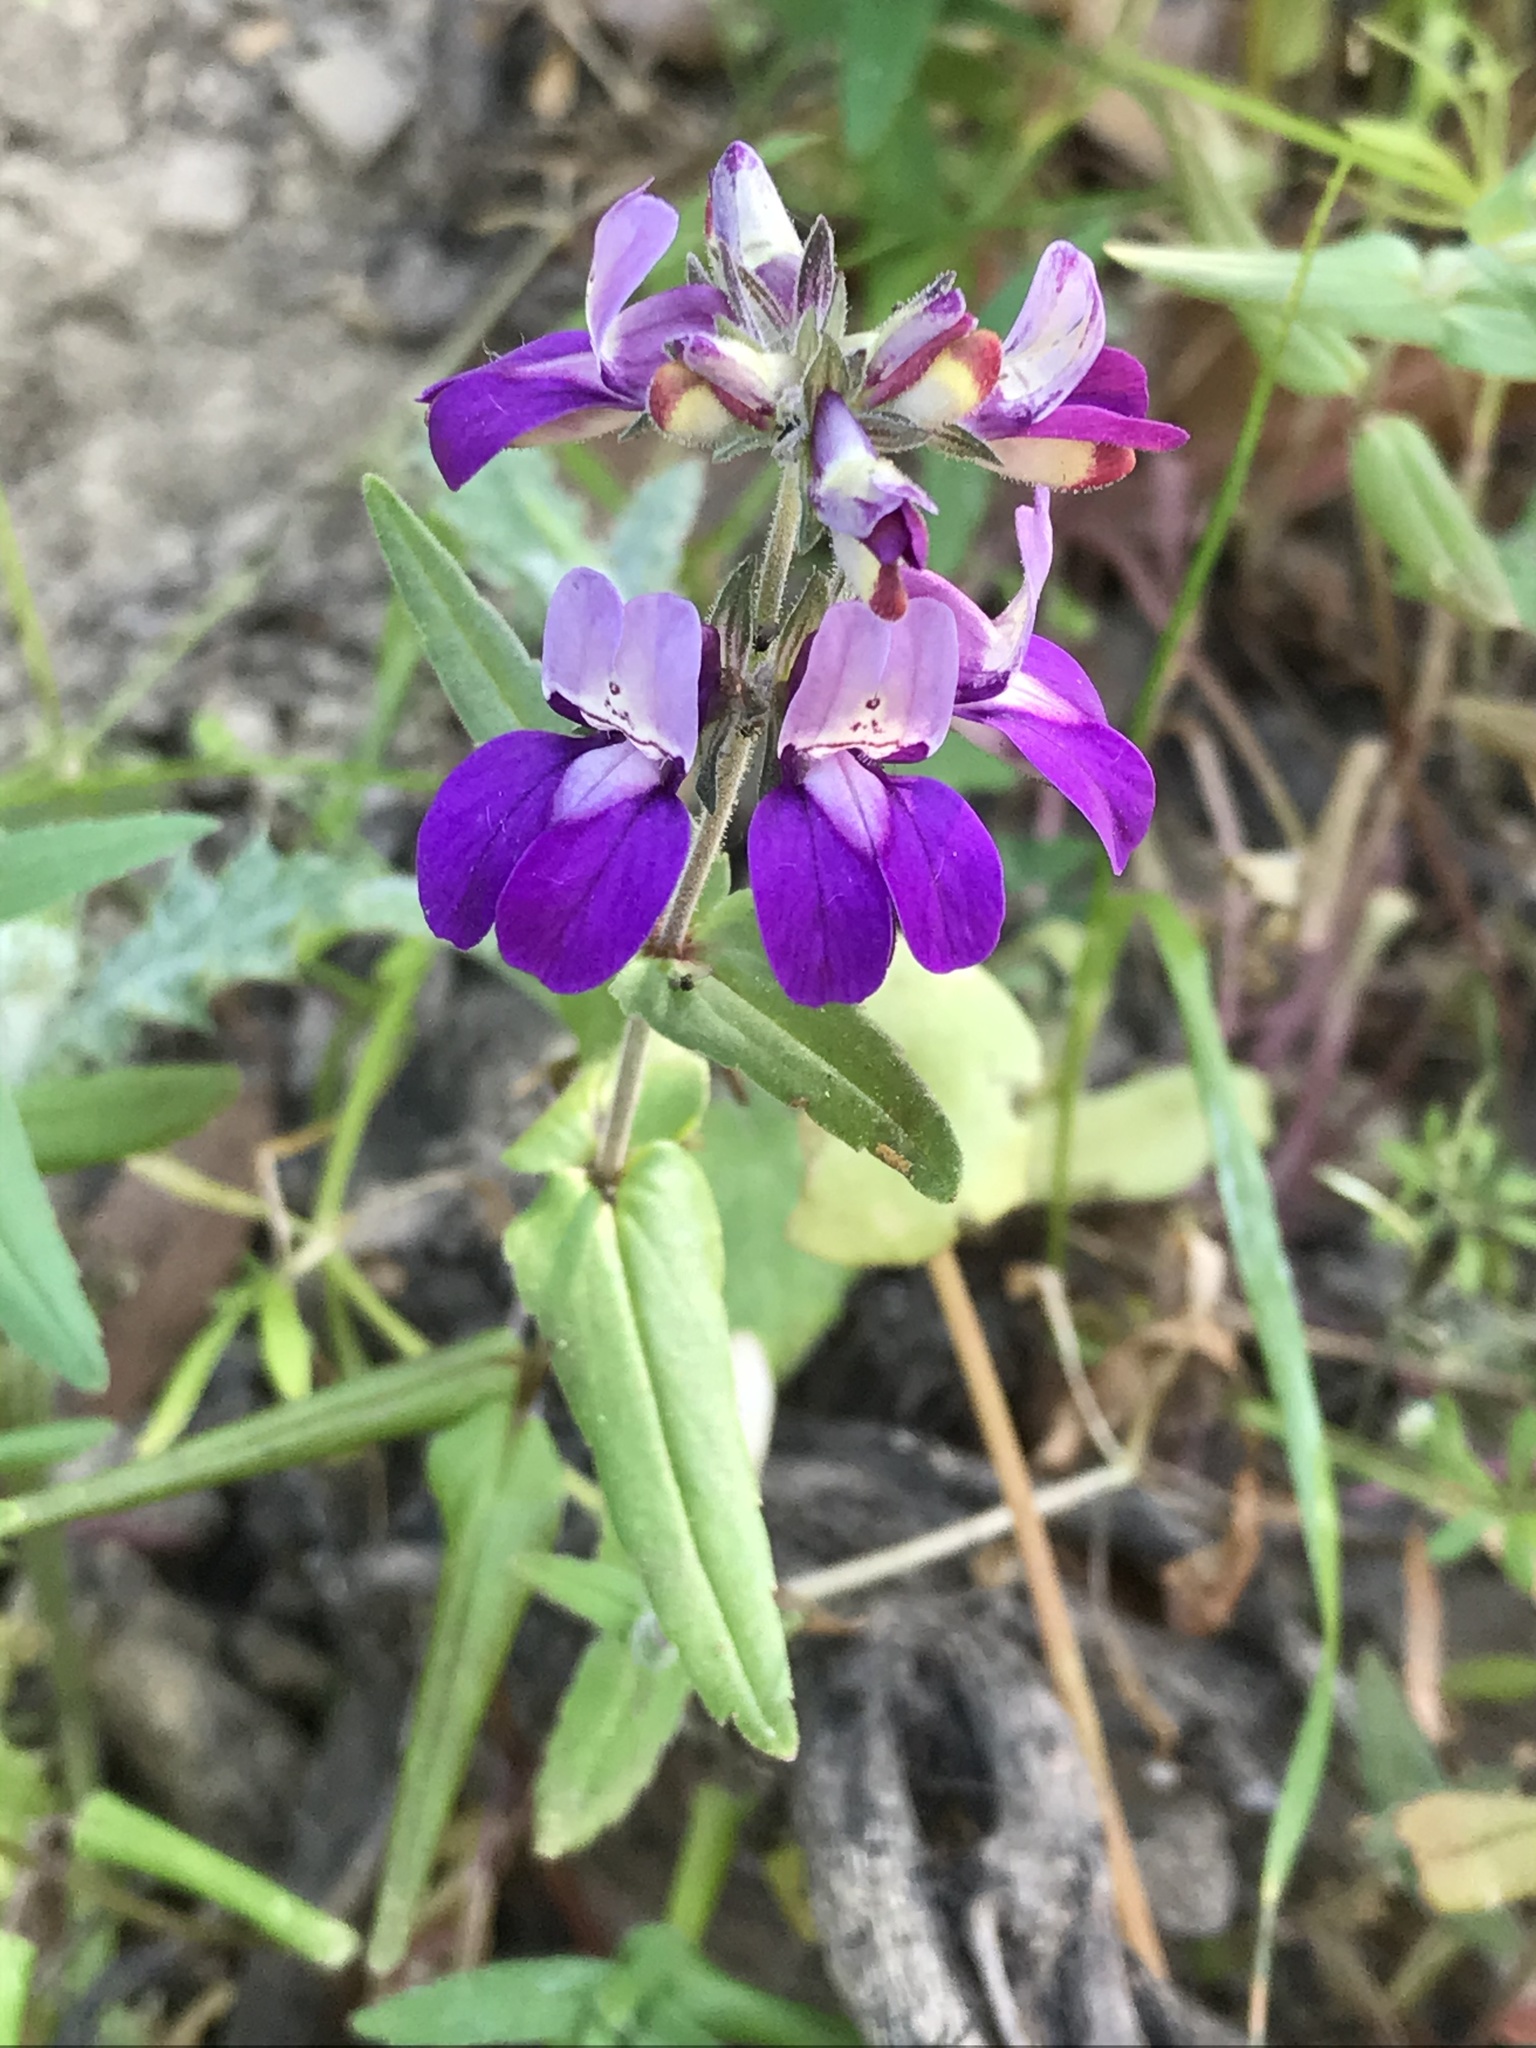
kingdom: Plantae
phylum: Tracheophyta
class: Magnoliopsida
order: Lamiales
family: Plantaginaceae
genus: Collinsia
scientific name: Collinsia heterophylla
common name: Chinese-houses
